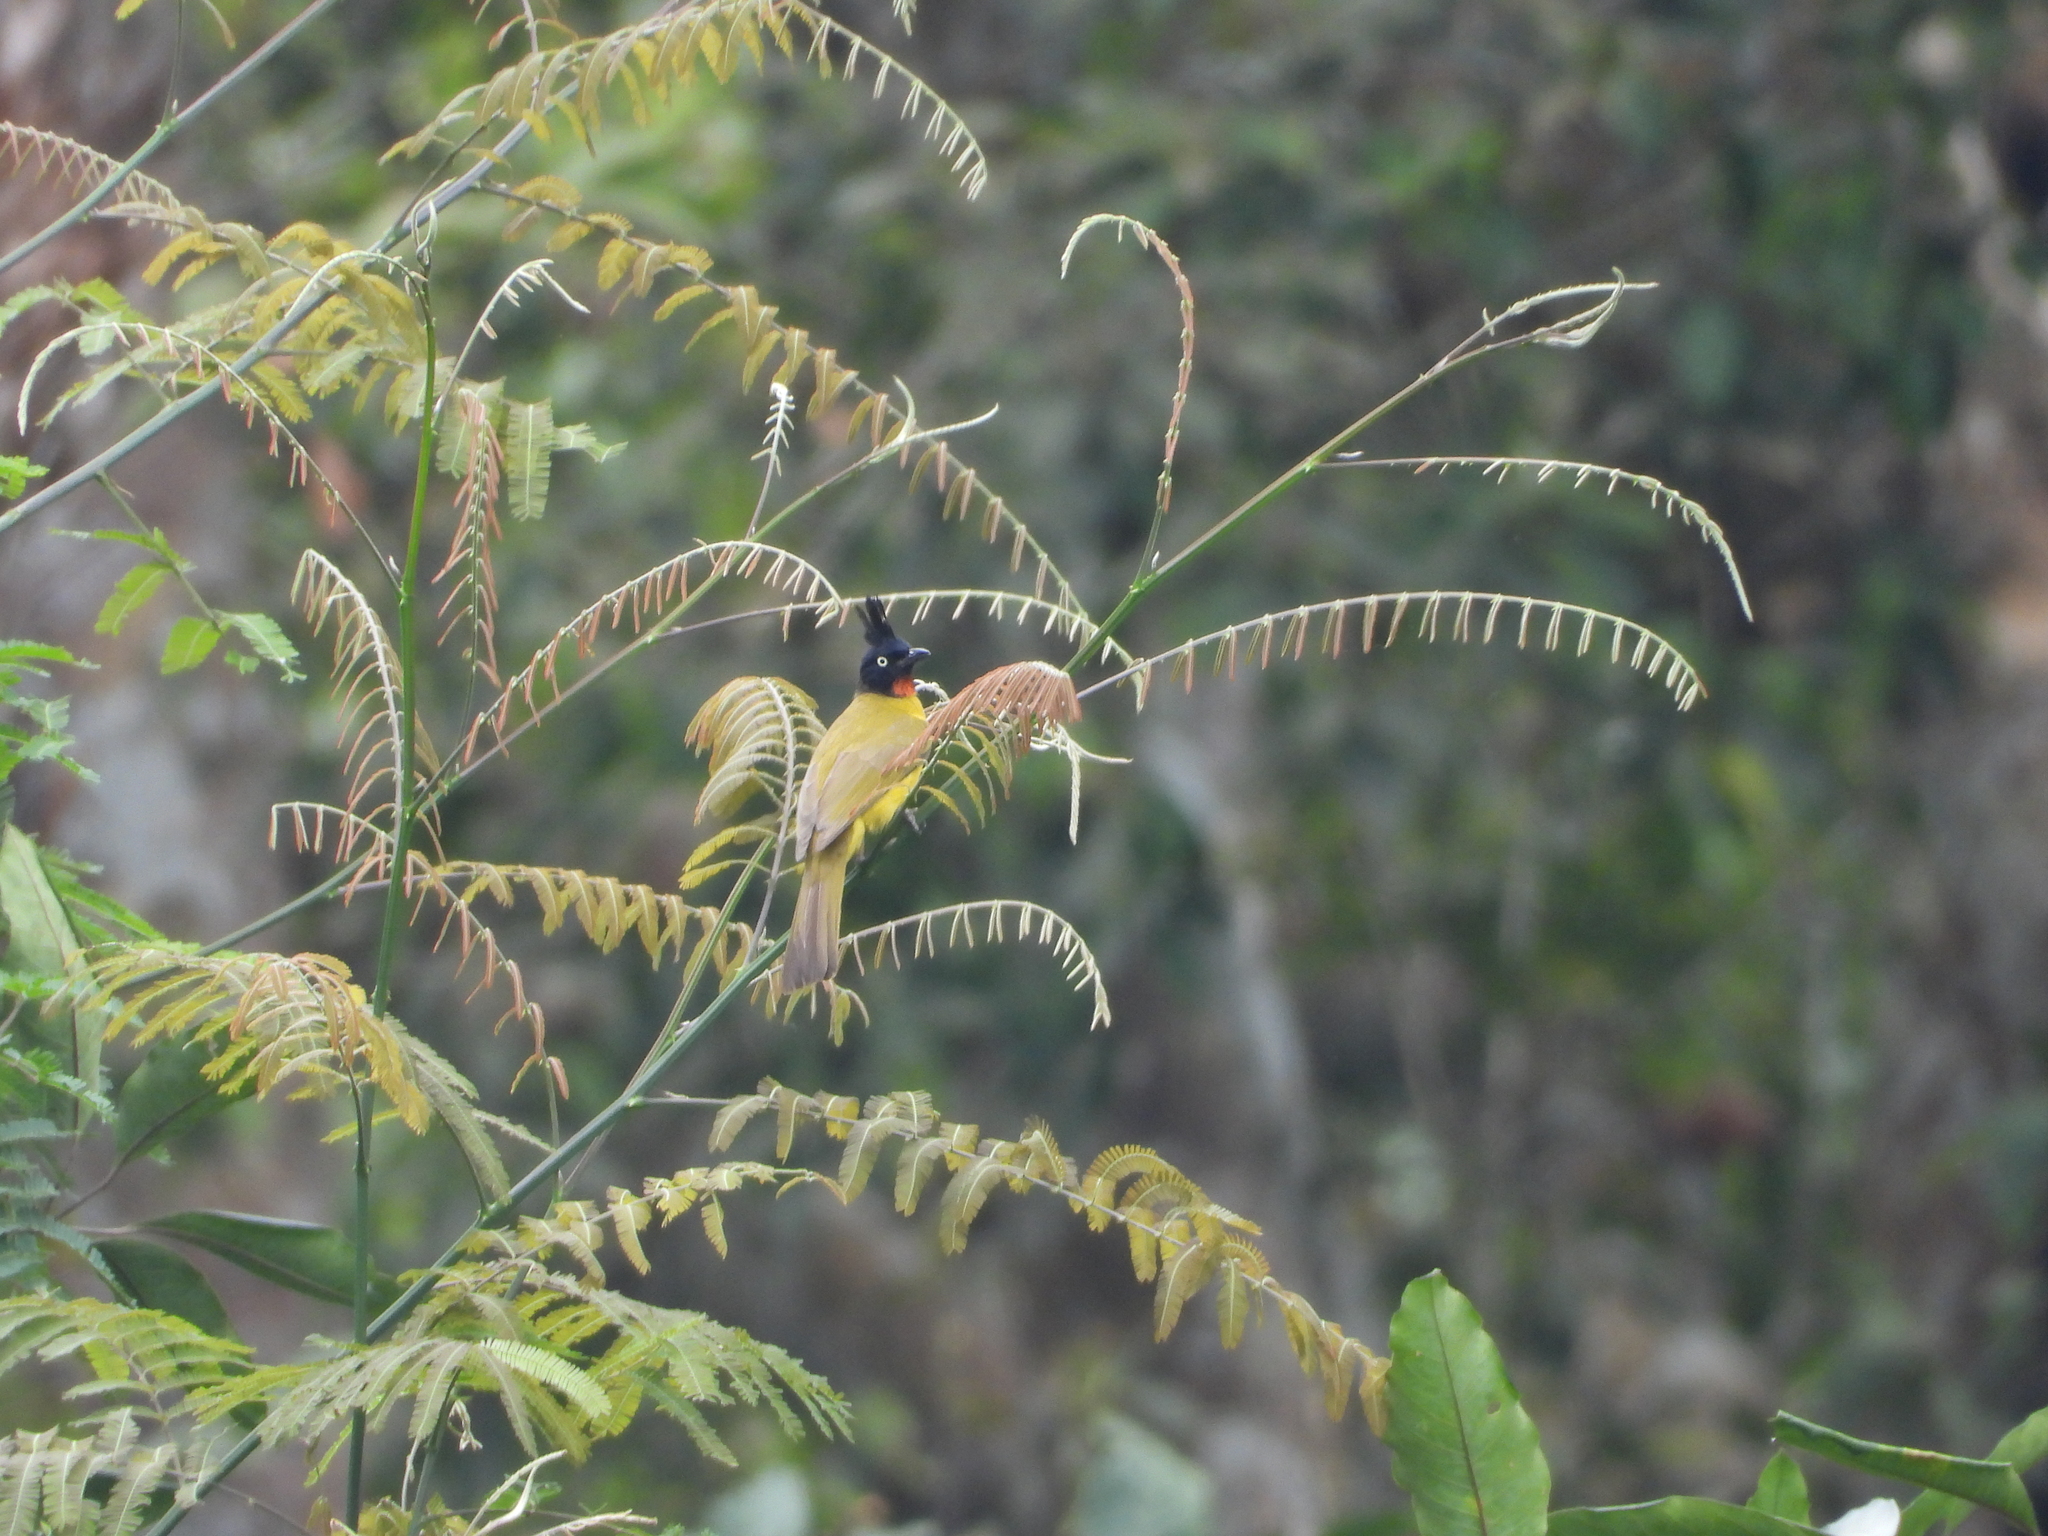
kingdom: Animalia
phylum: Chordata
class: Aves
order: Passeriformes
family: Pycnonotidae
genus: Pycnonotus
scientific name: Pycnonotus flaviventris
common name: Black-crested bulbul
